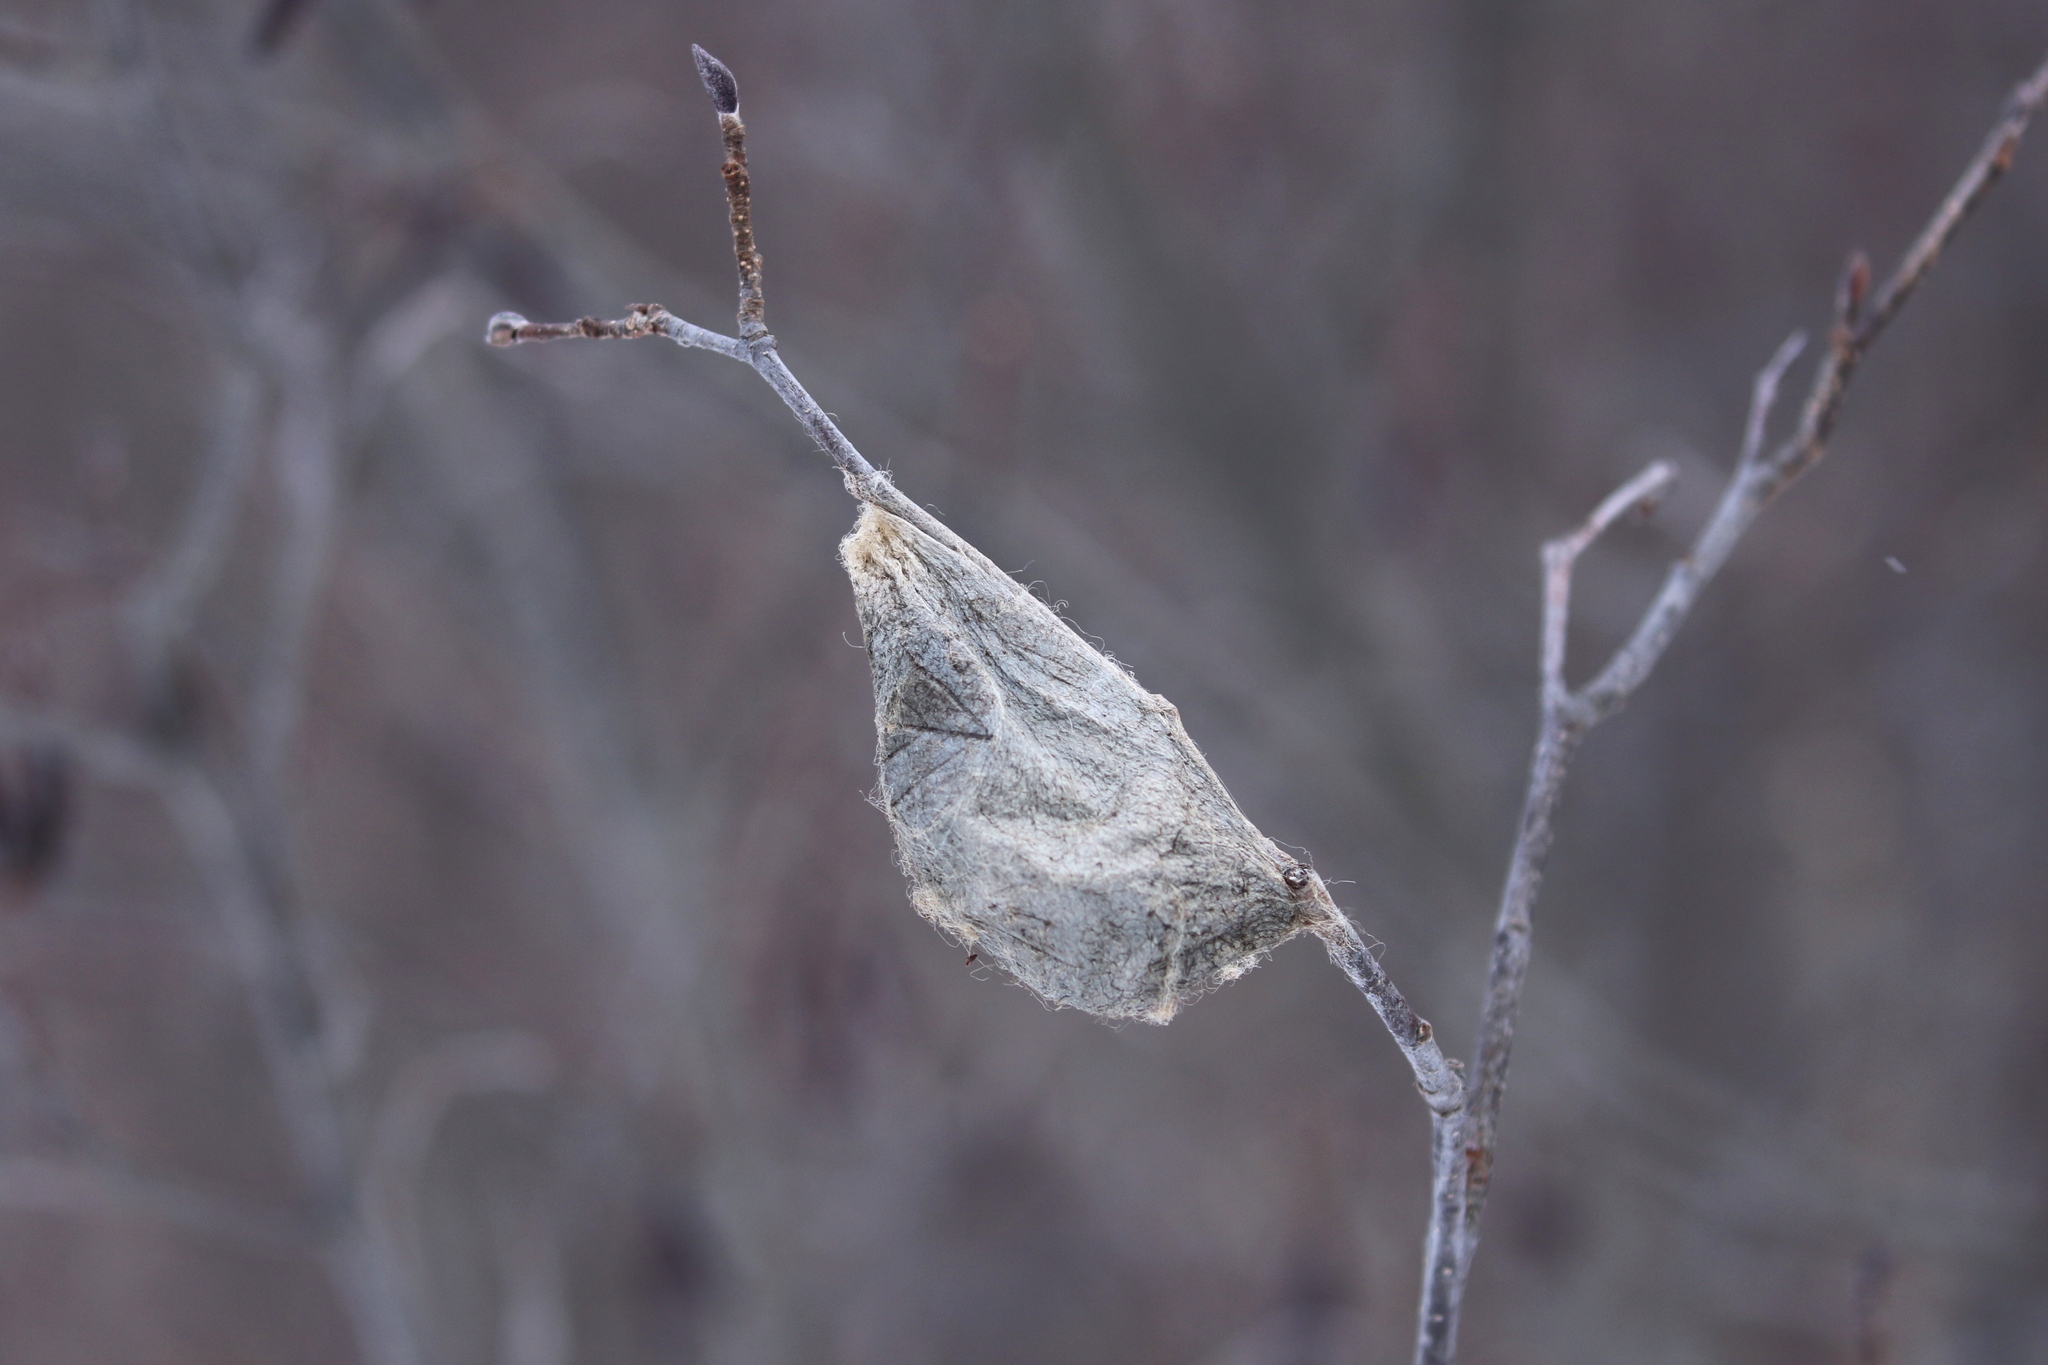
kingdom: Animalia
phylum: Arthropoda
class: Insecta
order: Lepidoptera
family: Saturniidae
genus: Hyalophora
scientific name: Hyalophora cecropia
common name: Cecropia silkmoth
